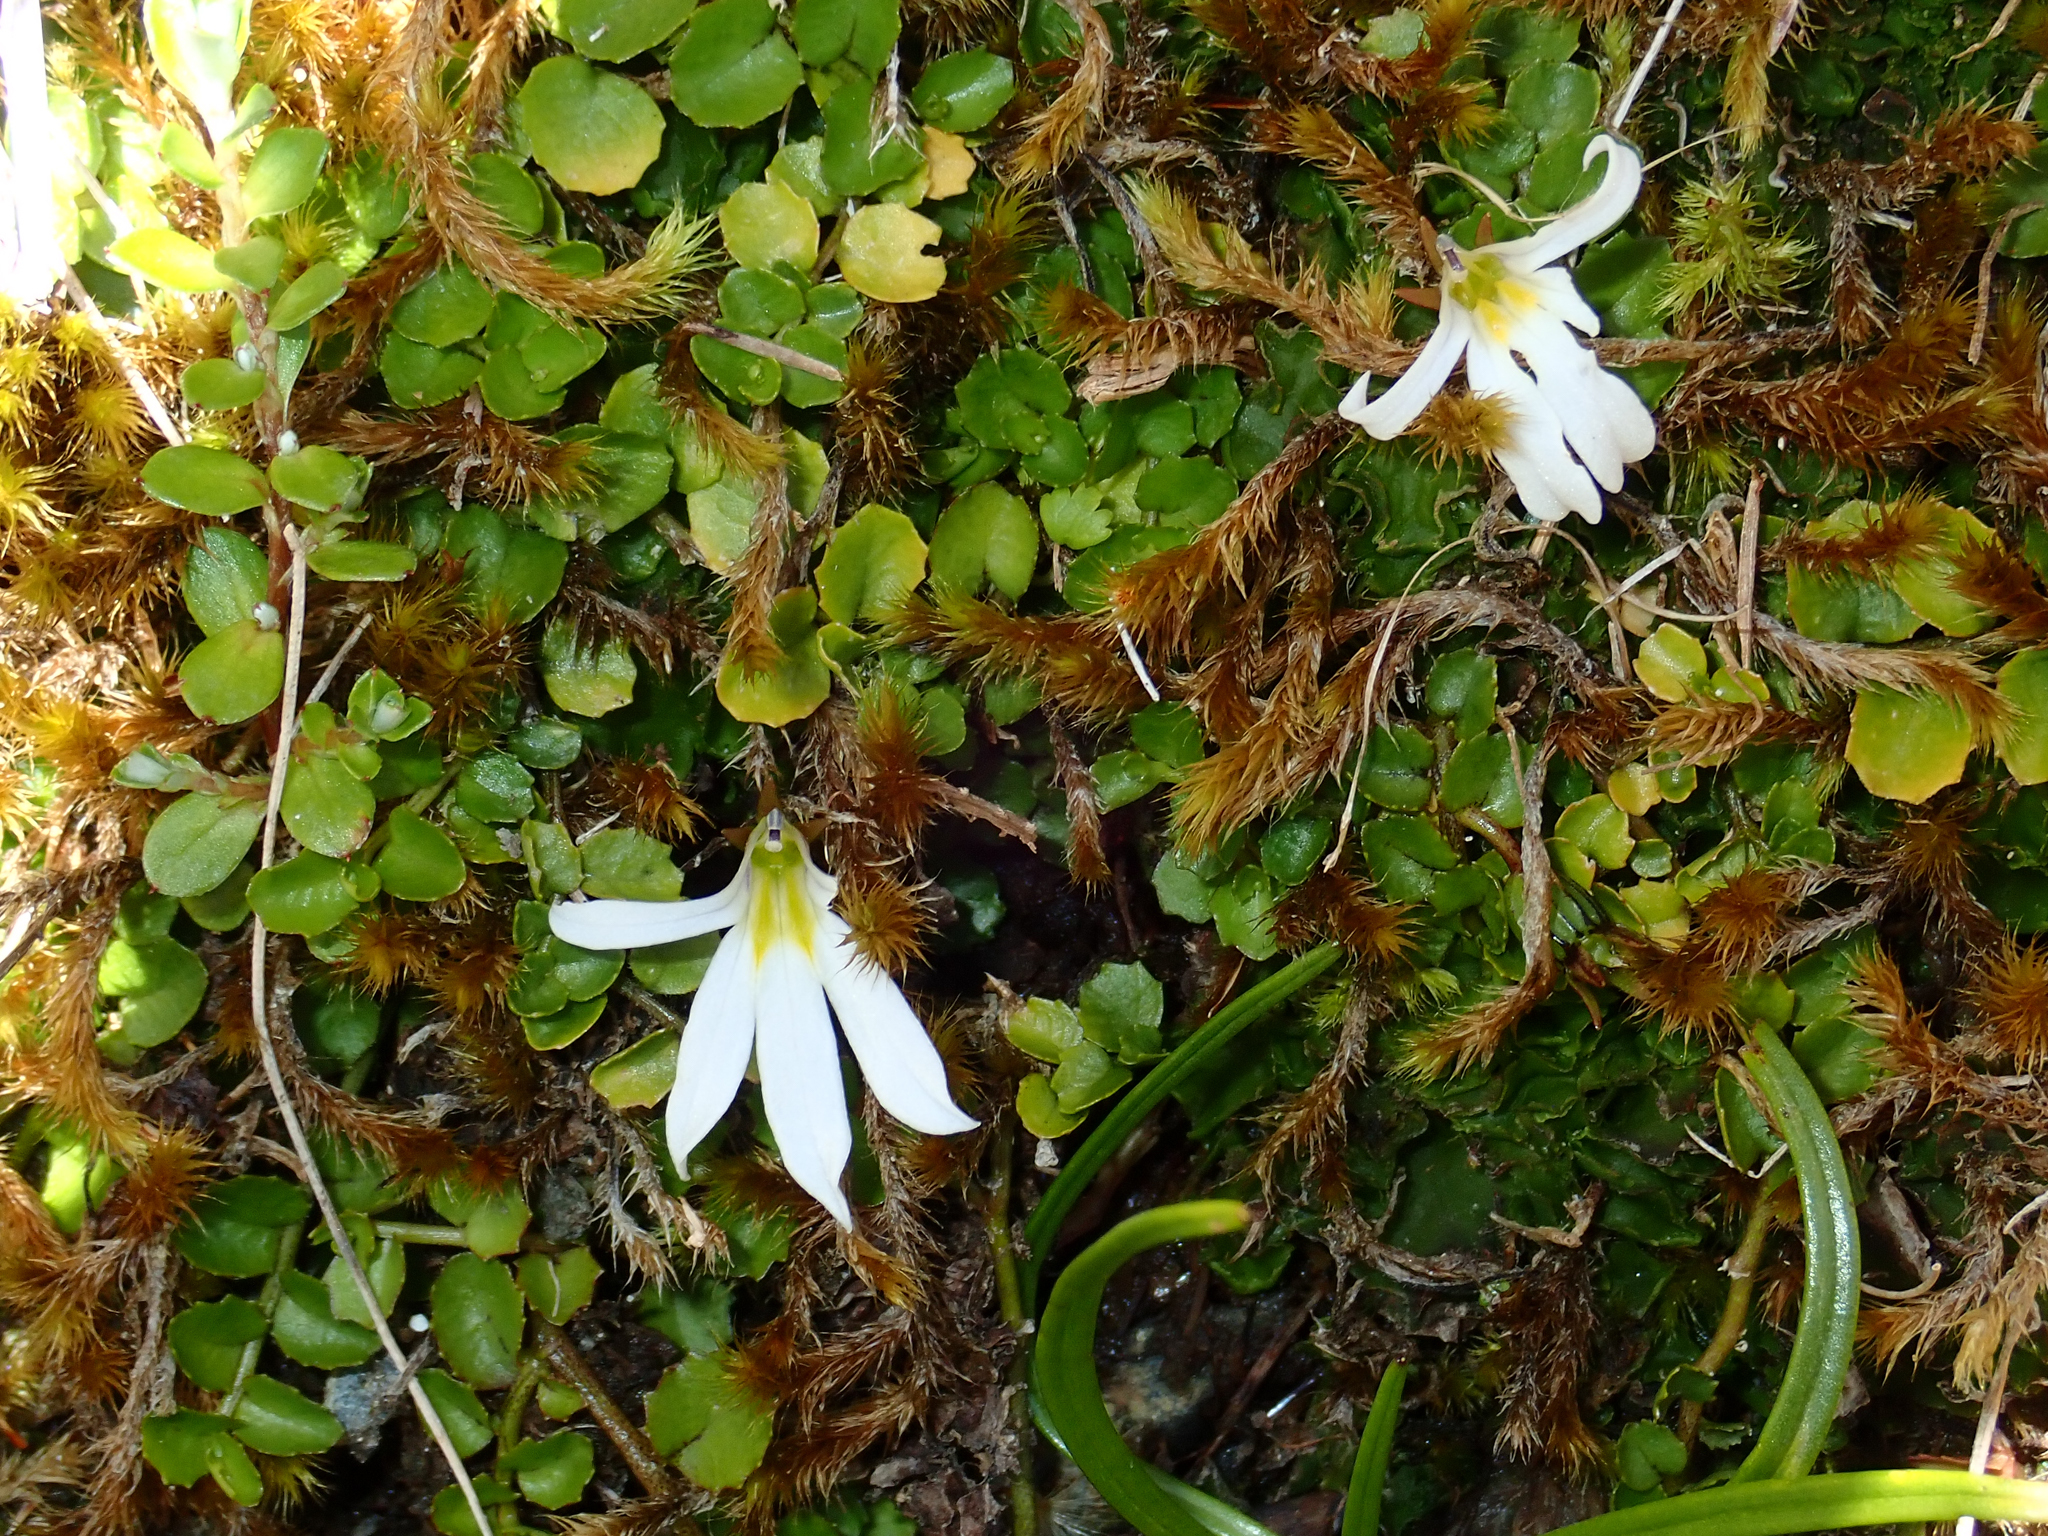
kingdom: Plantae
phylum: Tracheophyta
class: Magnoliopsida
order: Asterales
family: Campanulaceae
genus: Lobelia
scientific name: Lobelia angulata
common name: Lawn lobelia
